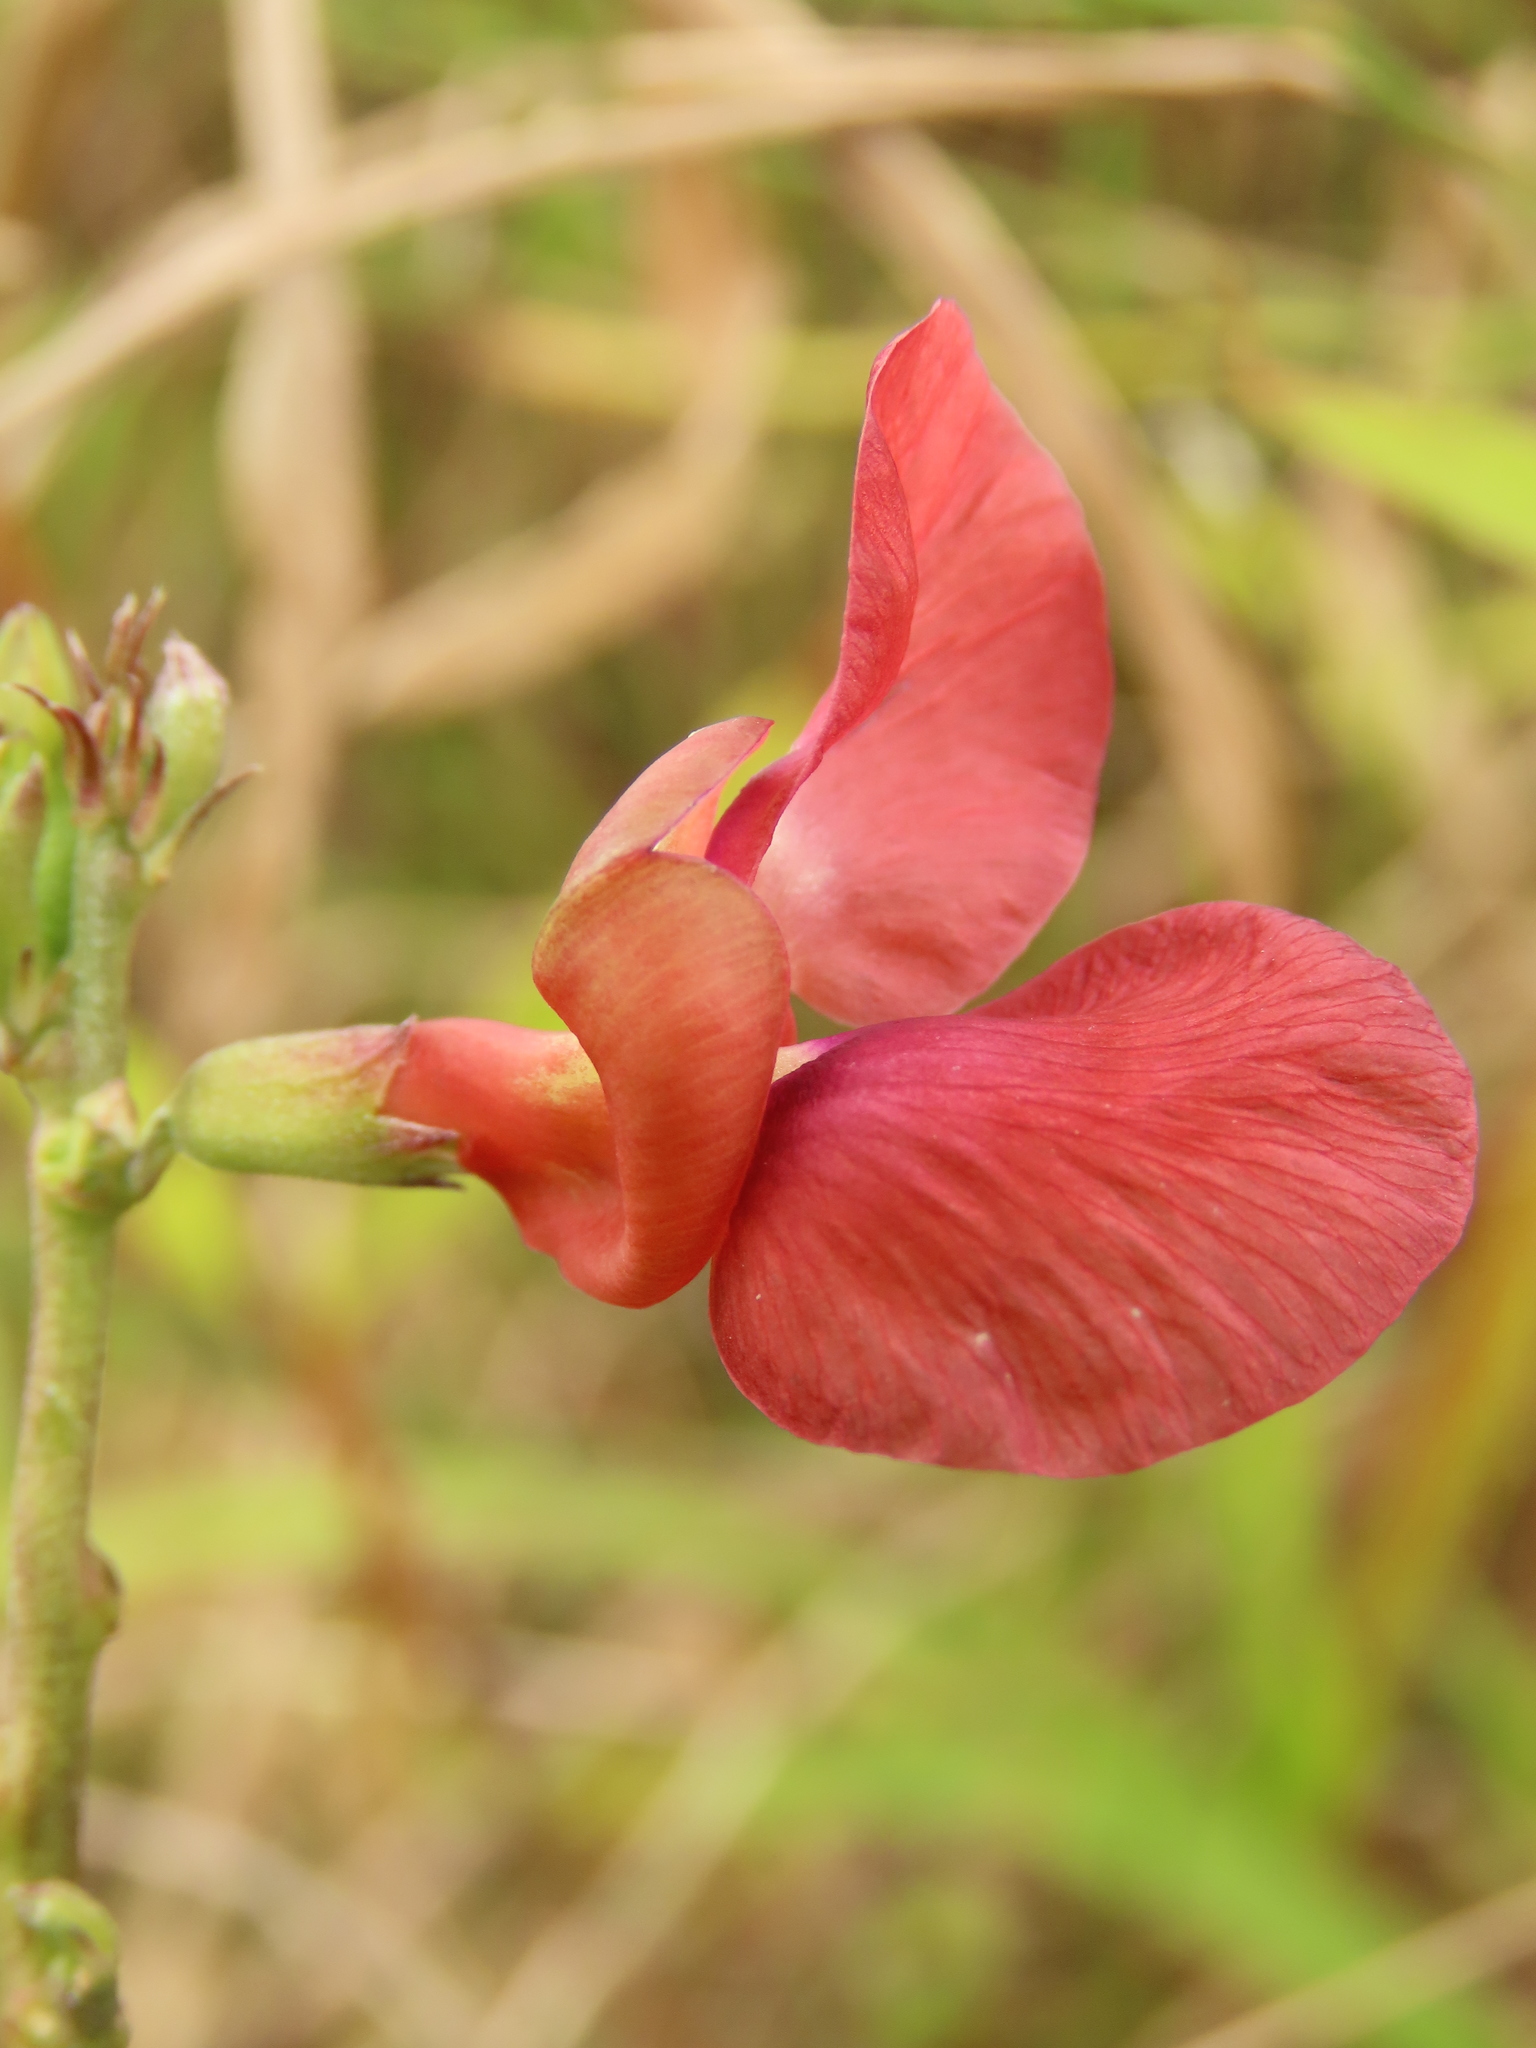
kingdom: Plantae
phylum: Tracheophyta
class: Magnoliopsida
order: Fabales
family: Fabaceae
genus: Macroptilium
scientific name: Macroptilium lathyroides
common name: Wild bushbean
